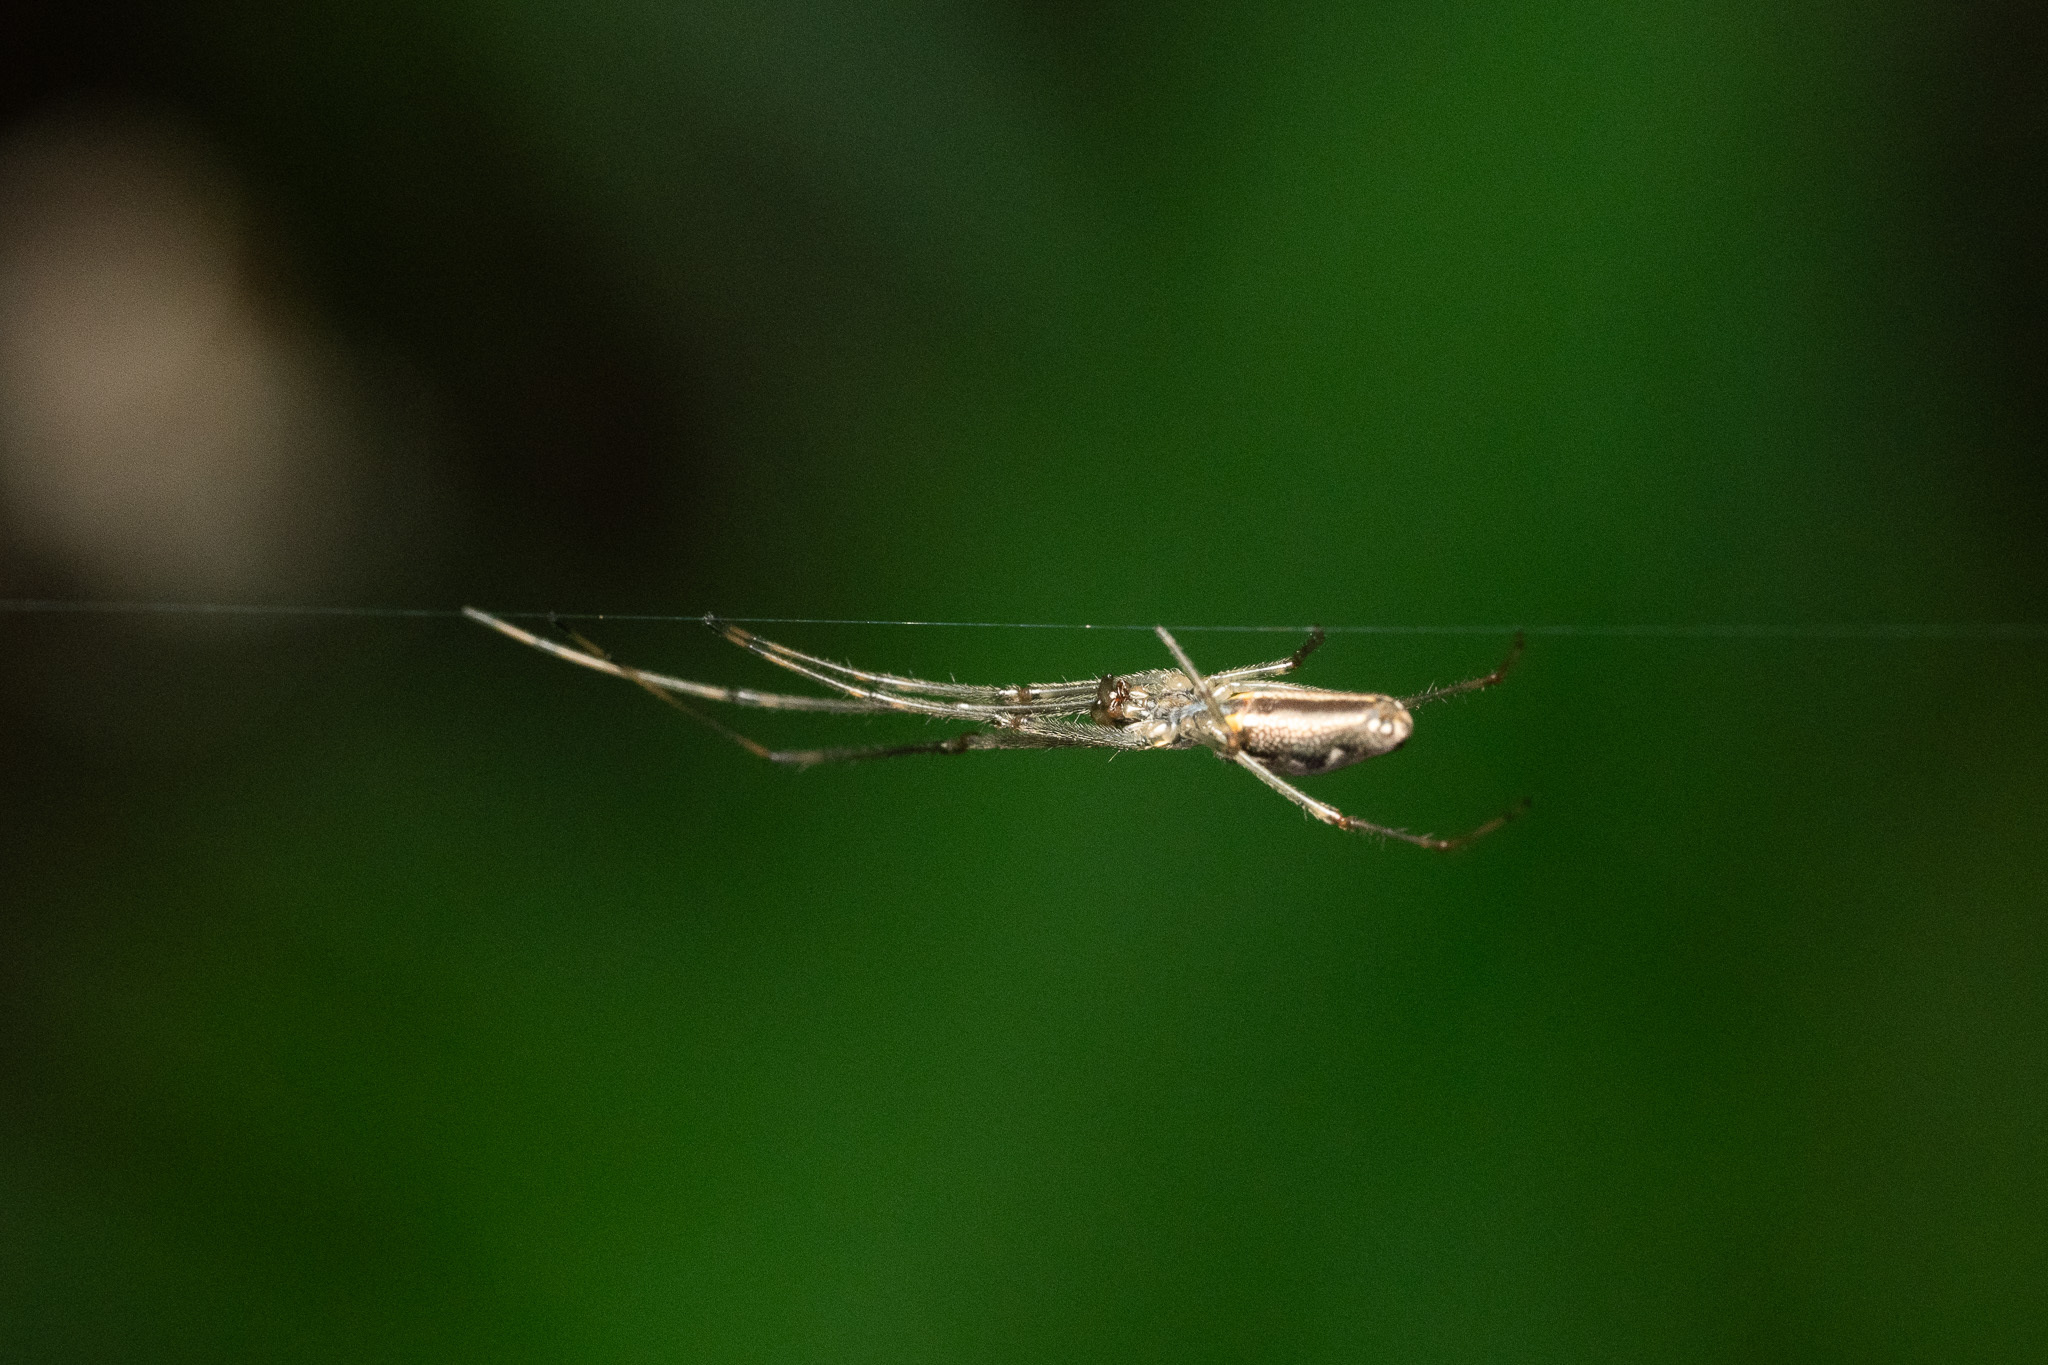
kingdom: Animalia
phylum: Arthropoda
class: Arachnida
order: Araneae
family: Tetragnathidae
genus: Tetragnatha
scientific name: Tetragnatha versicolor
